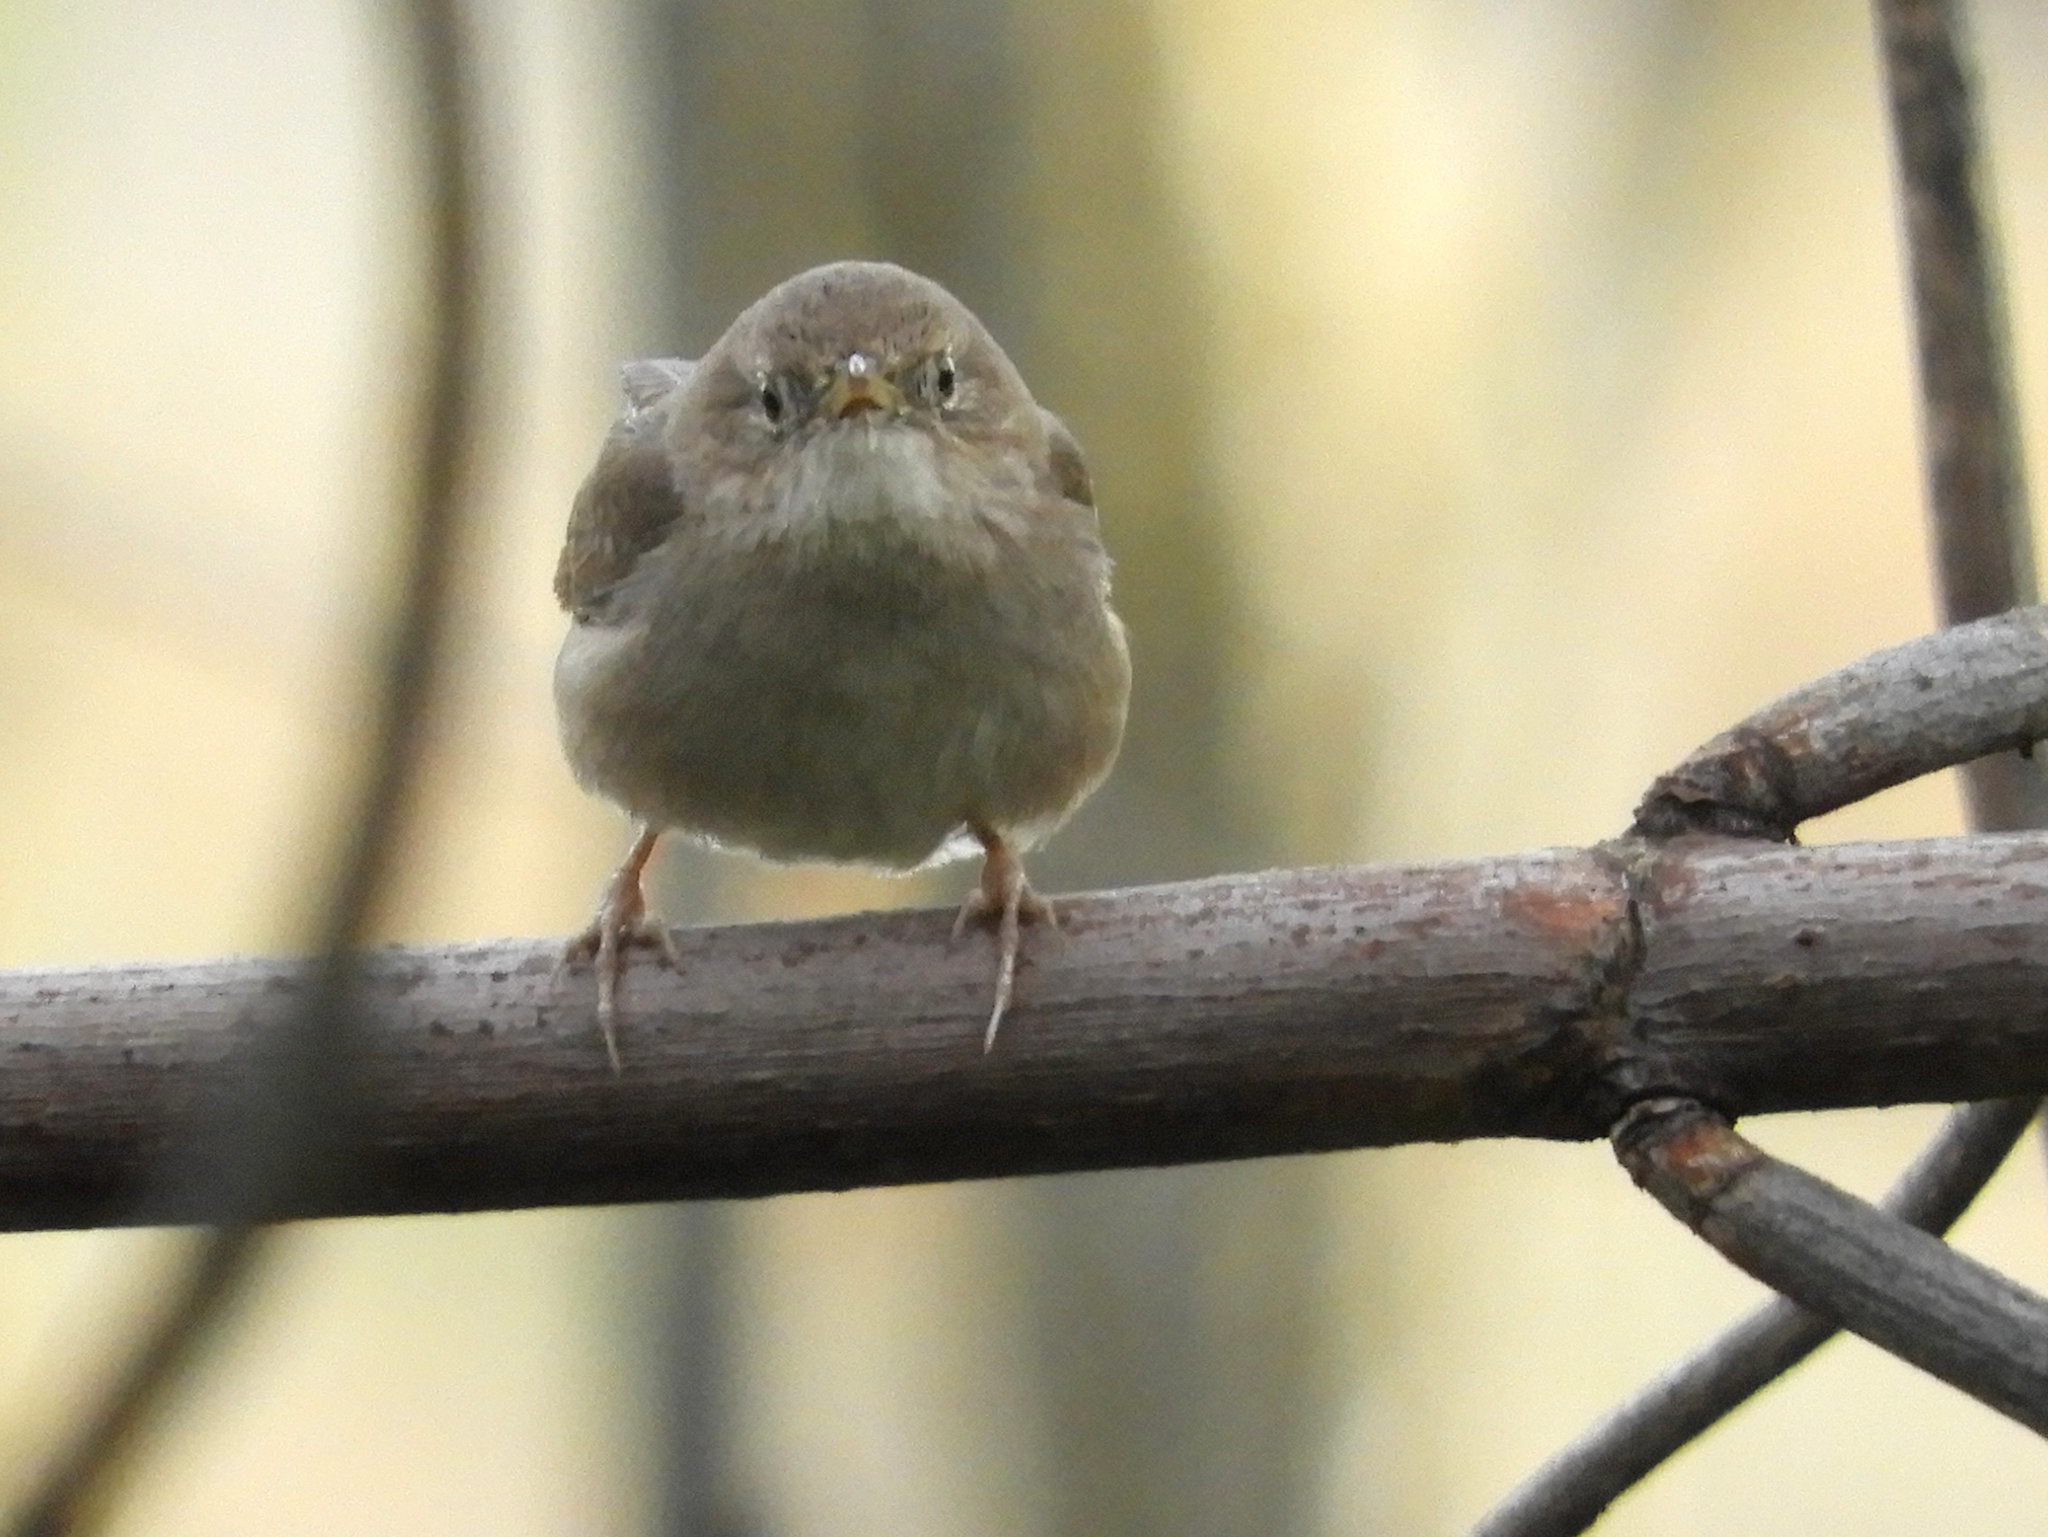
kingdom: Animalia
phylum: Chordata
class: Aves
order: Passeriformes
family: Troglodytidae
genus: Troglodytes
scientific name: Troglodytes aedon
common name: House wren
